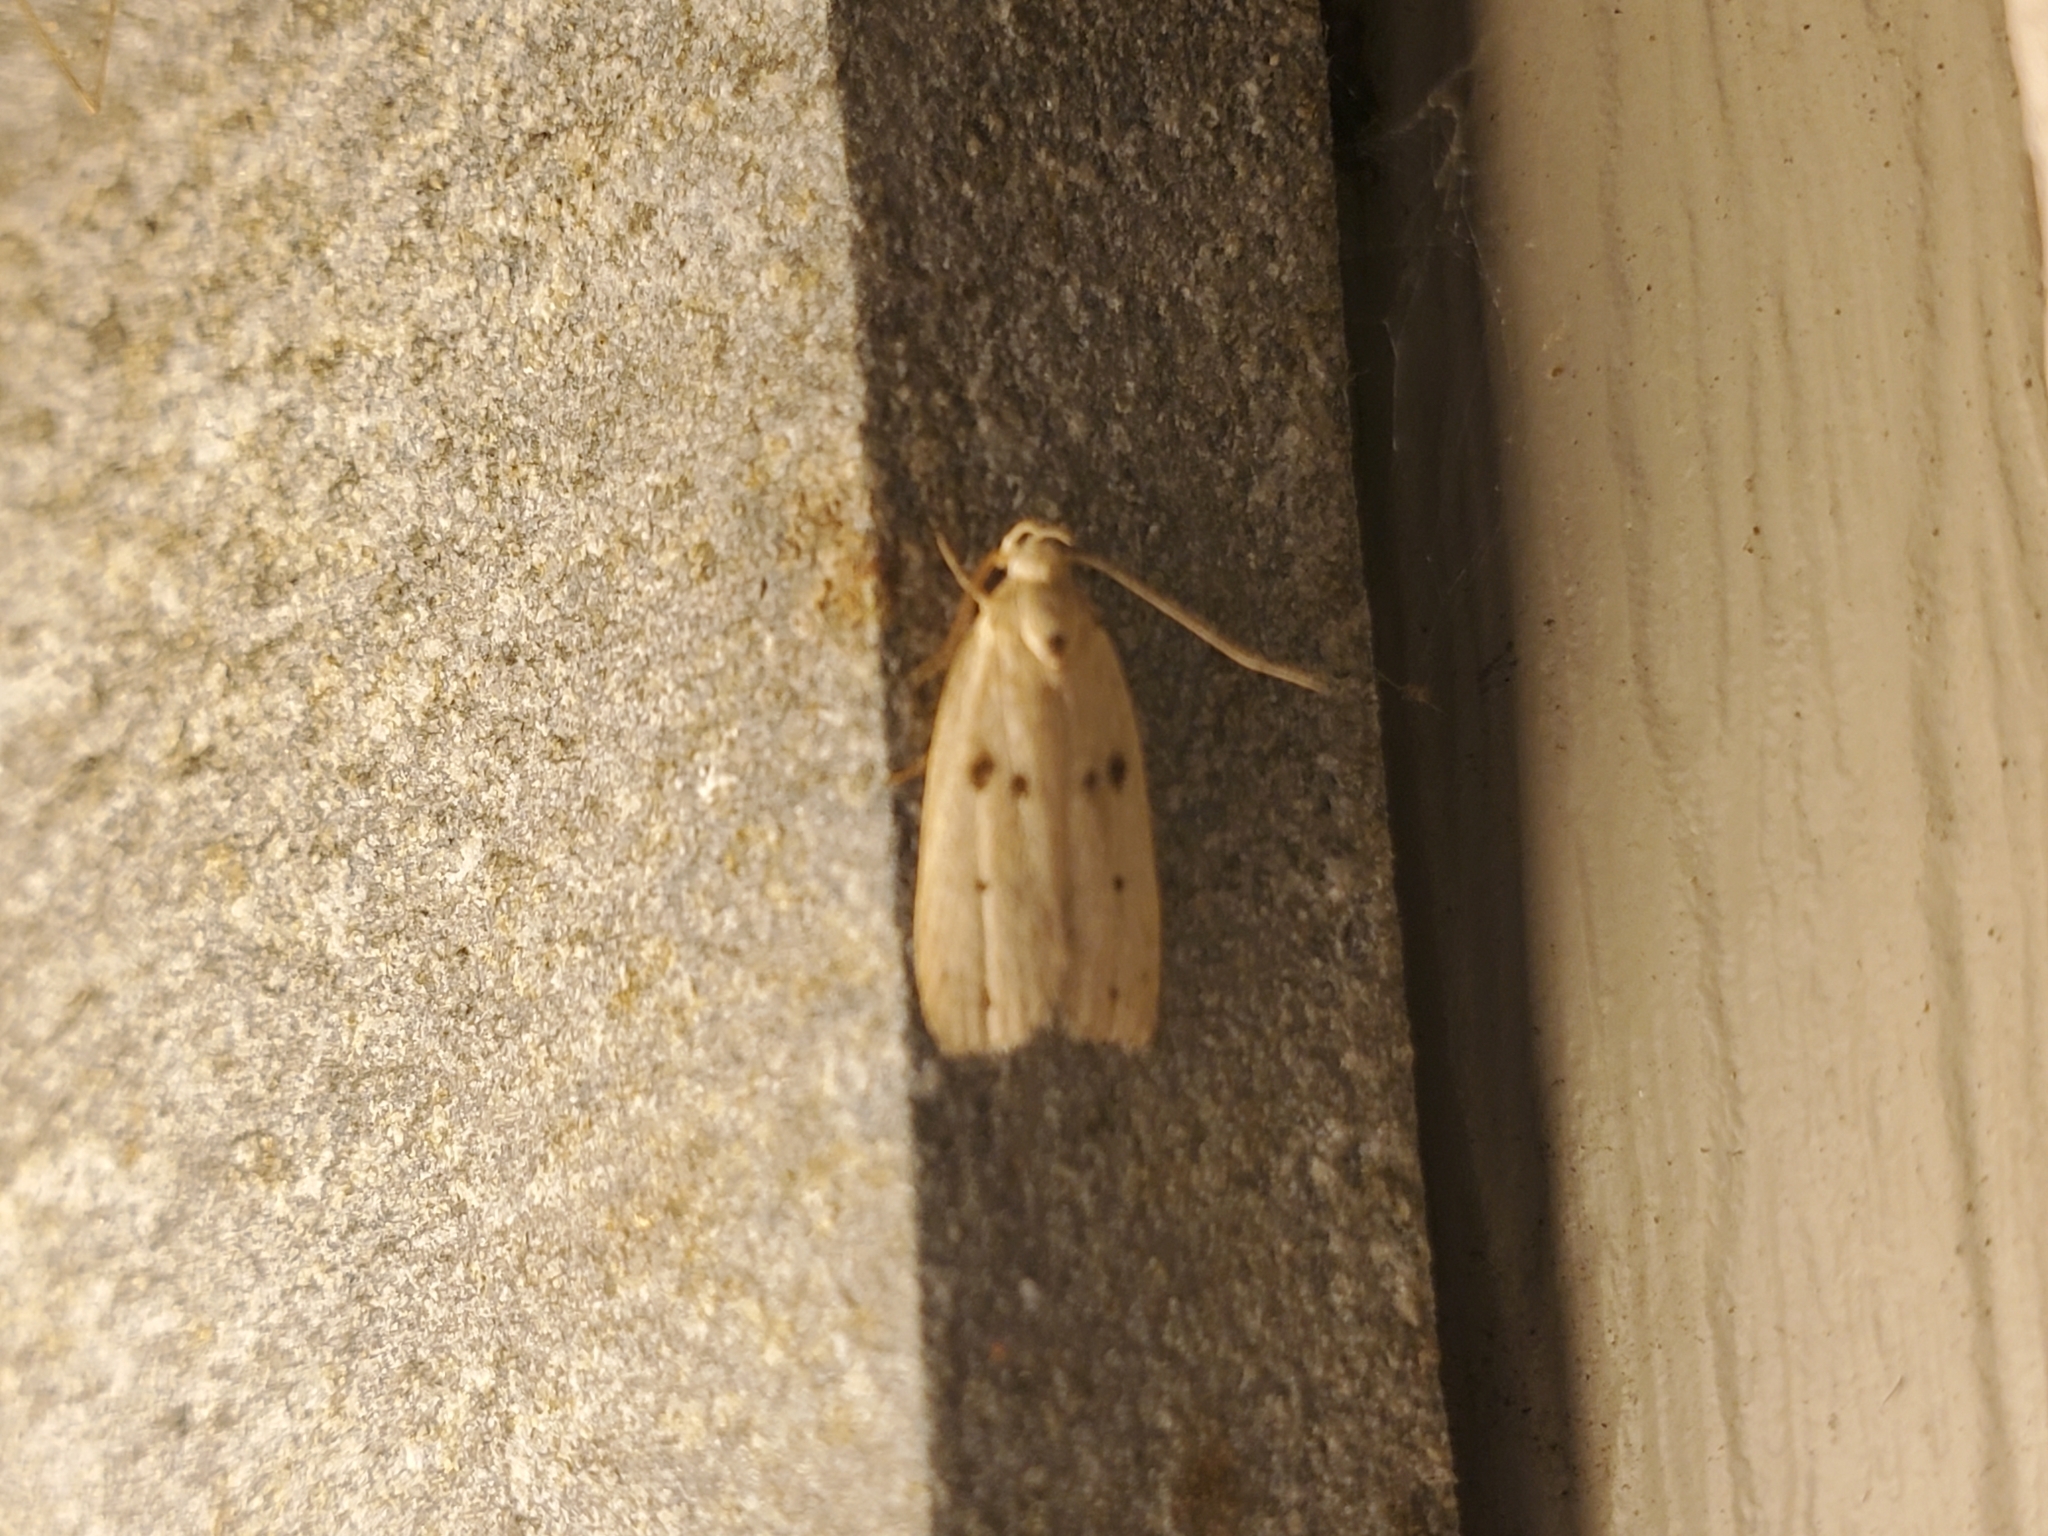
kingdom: Animalia
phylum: Arthropoda
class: Insecta
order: Lepidoptera
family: Peleopodidae
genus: Scythropiodes
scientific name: Scythropiodes issikii
